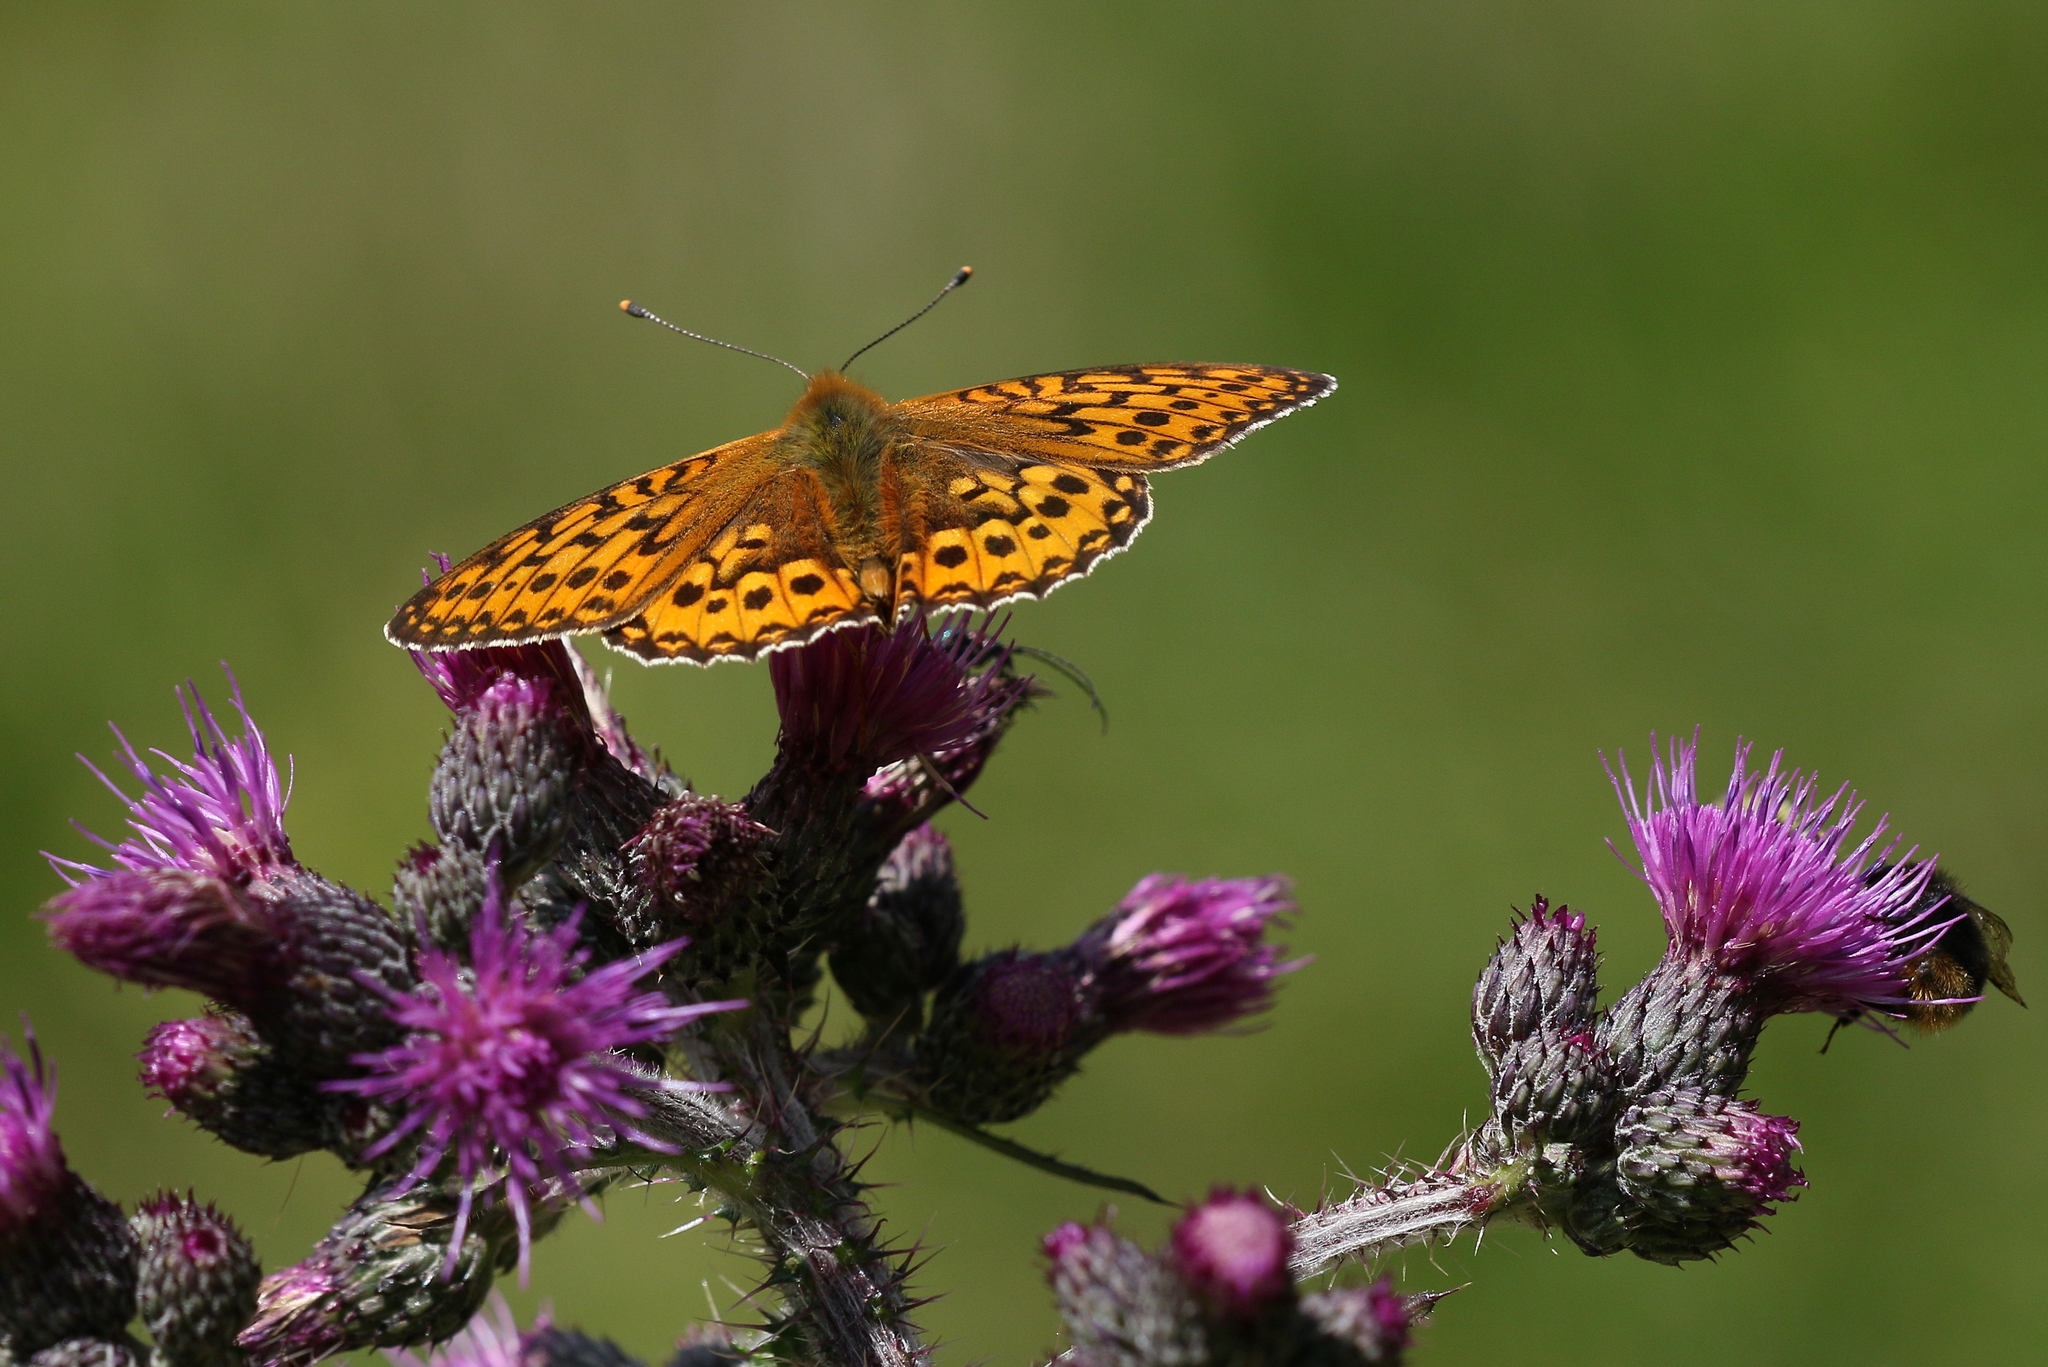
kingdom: Animalia
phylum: Arthropoda
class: Insecta
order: Lepidoptera
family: Nymphalidae
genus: Speyeria
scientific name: Speyeria aglaja
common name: Dark green fritillary
